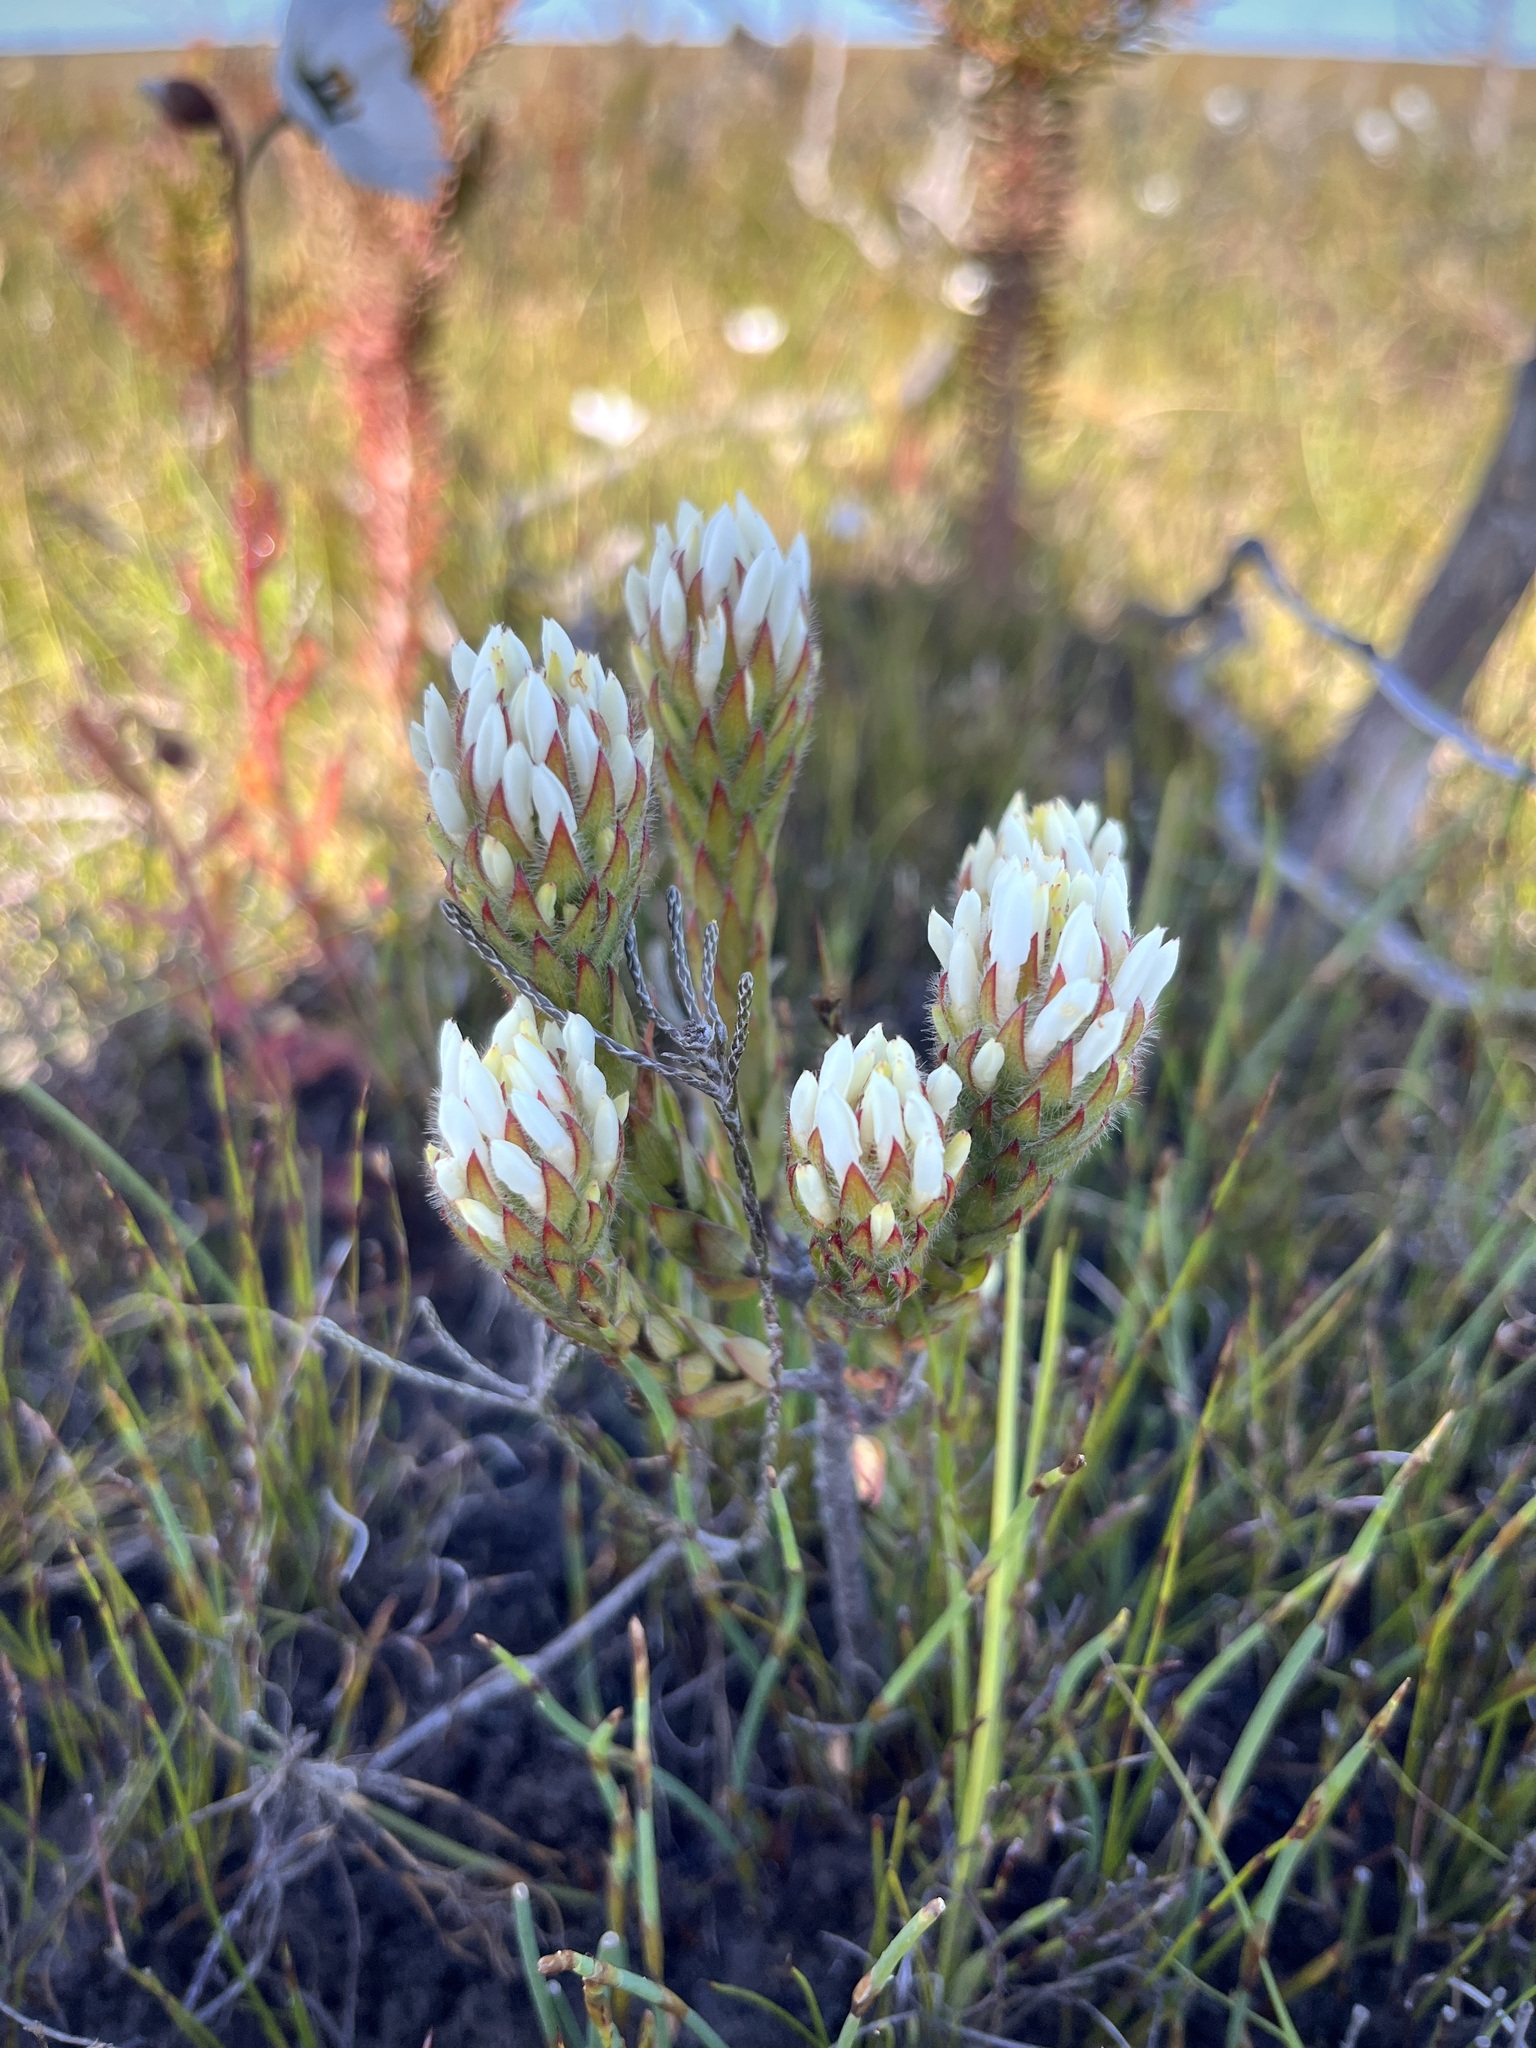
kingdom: Plantae
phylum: Tracheophyta
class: Magnoliopsida
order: Malvales
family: Thymelaeaceae
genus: Gnidia
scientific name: Gnidia ornata
